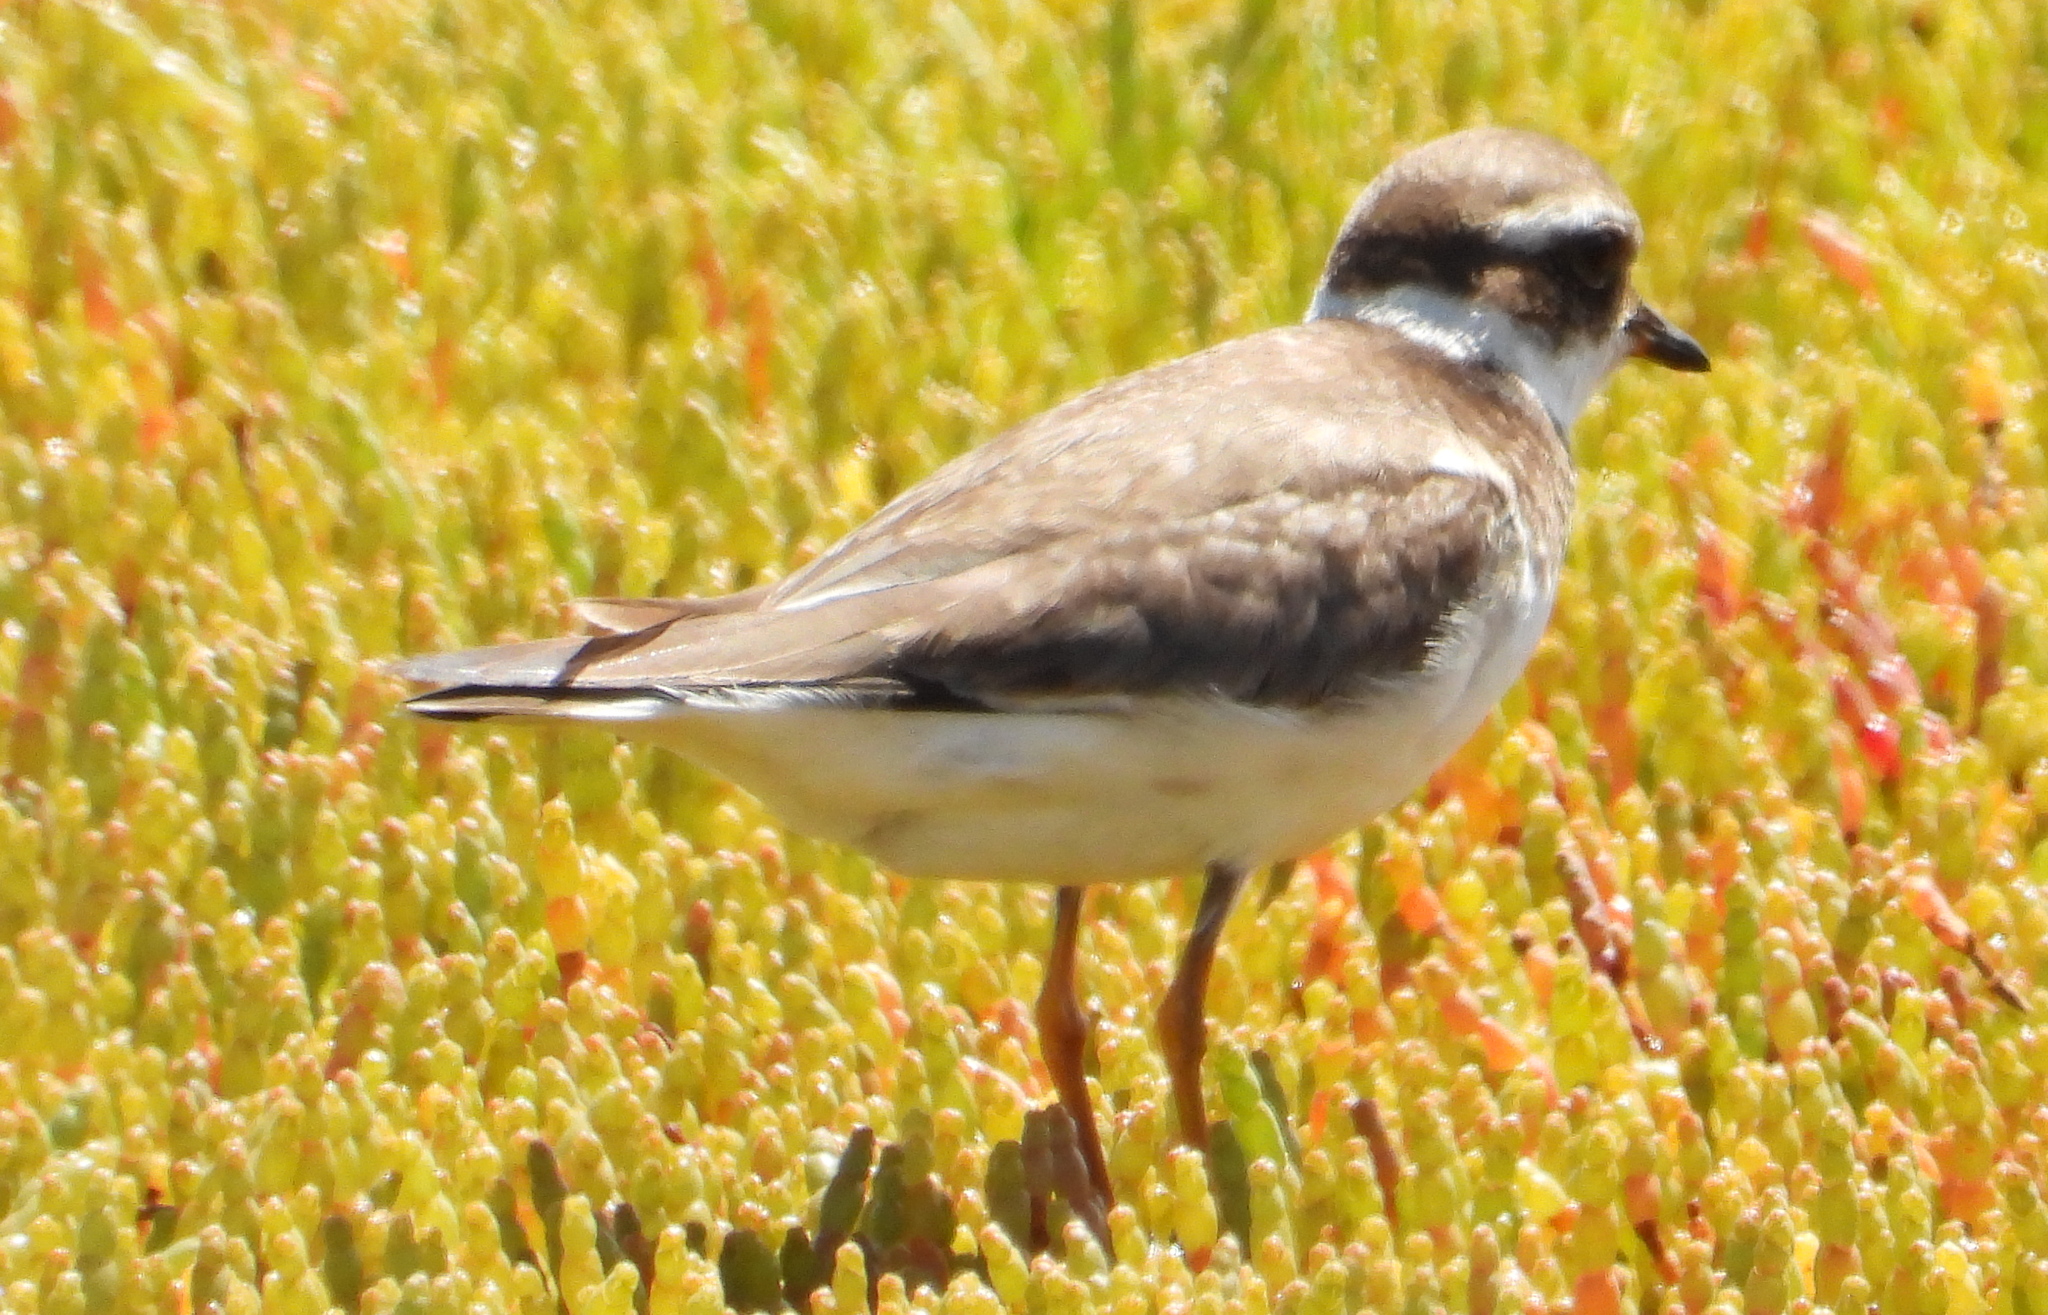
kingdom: Animalia
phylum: Chordata
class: Aves
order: Charadriiformes
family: Charadriidae
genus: Charadrius
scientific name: Charadrius hiaticula
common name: Common ringed plover
